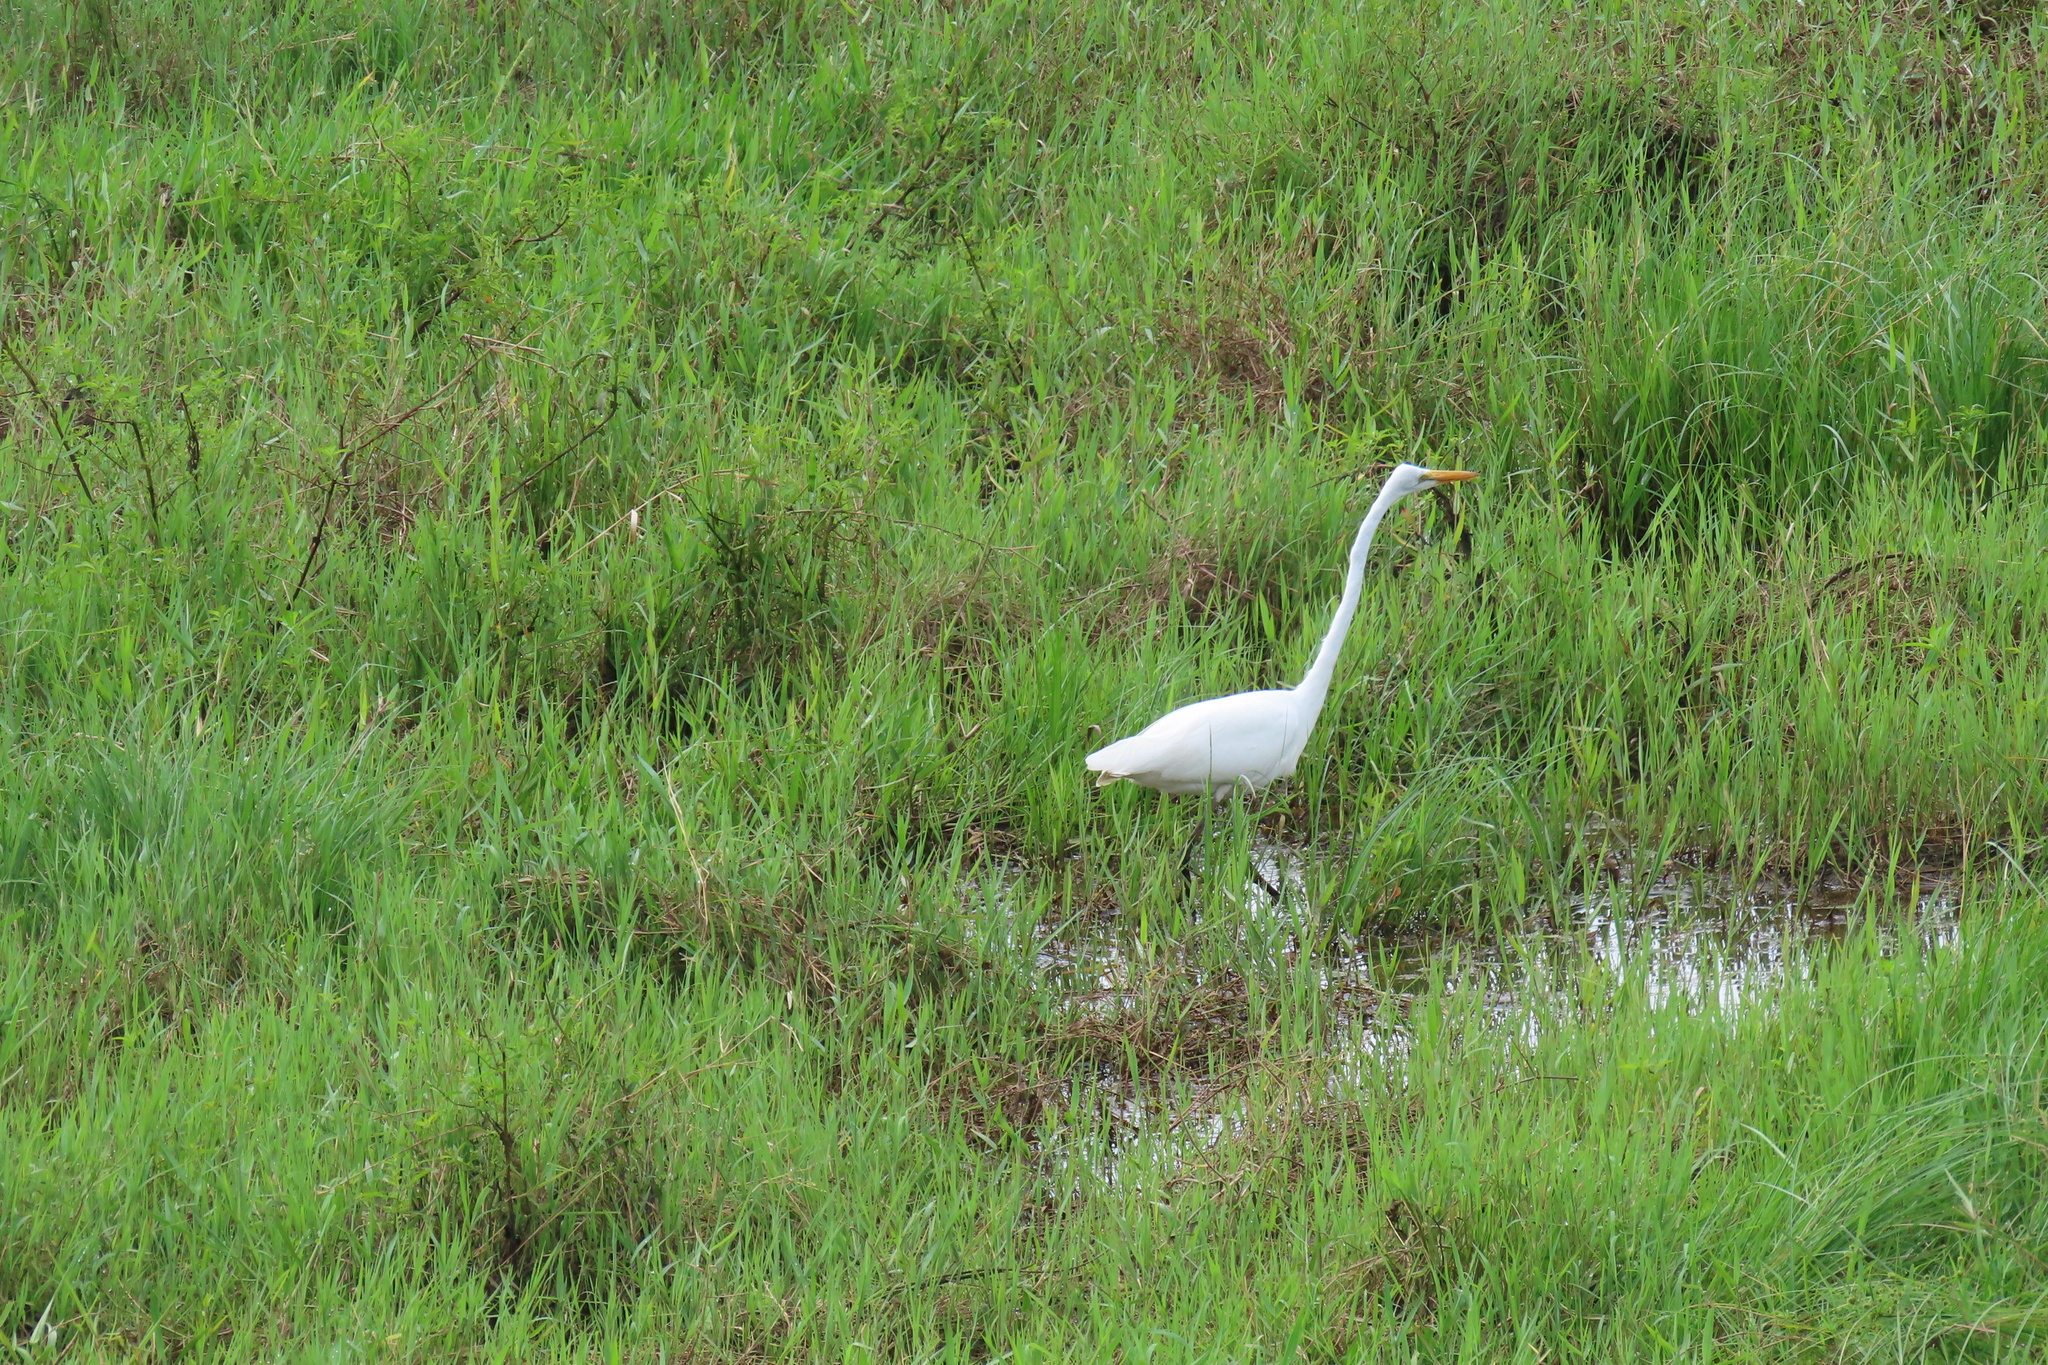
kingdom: Animalia
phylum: Chordata
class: Aves
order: Pelecaniformes
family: Ardeidae
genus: Ardea
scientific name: Ardea alba
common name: Great egret
